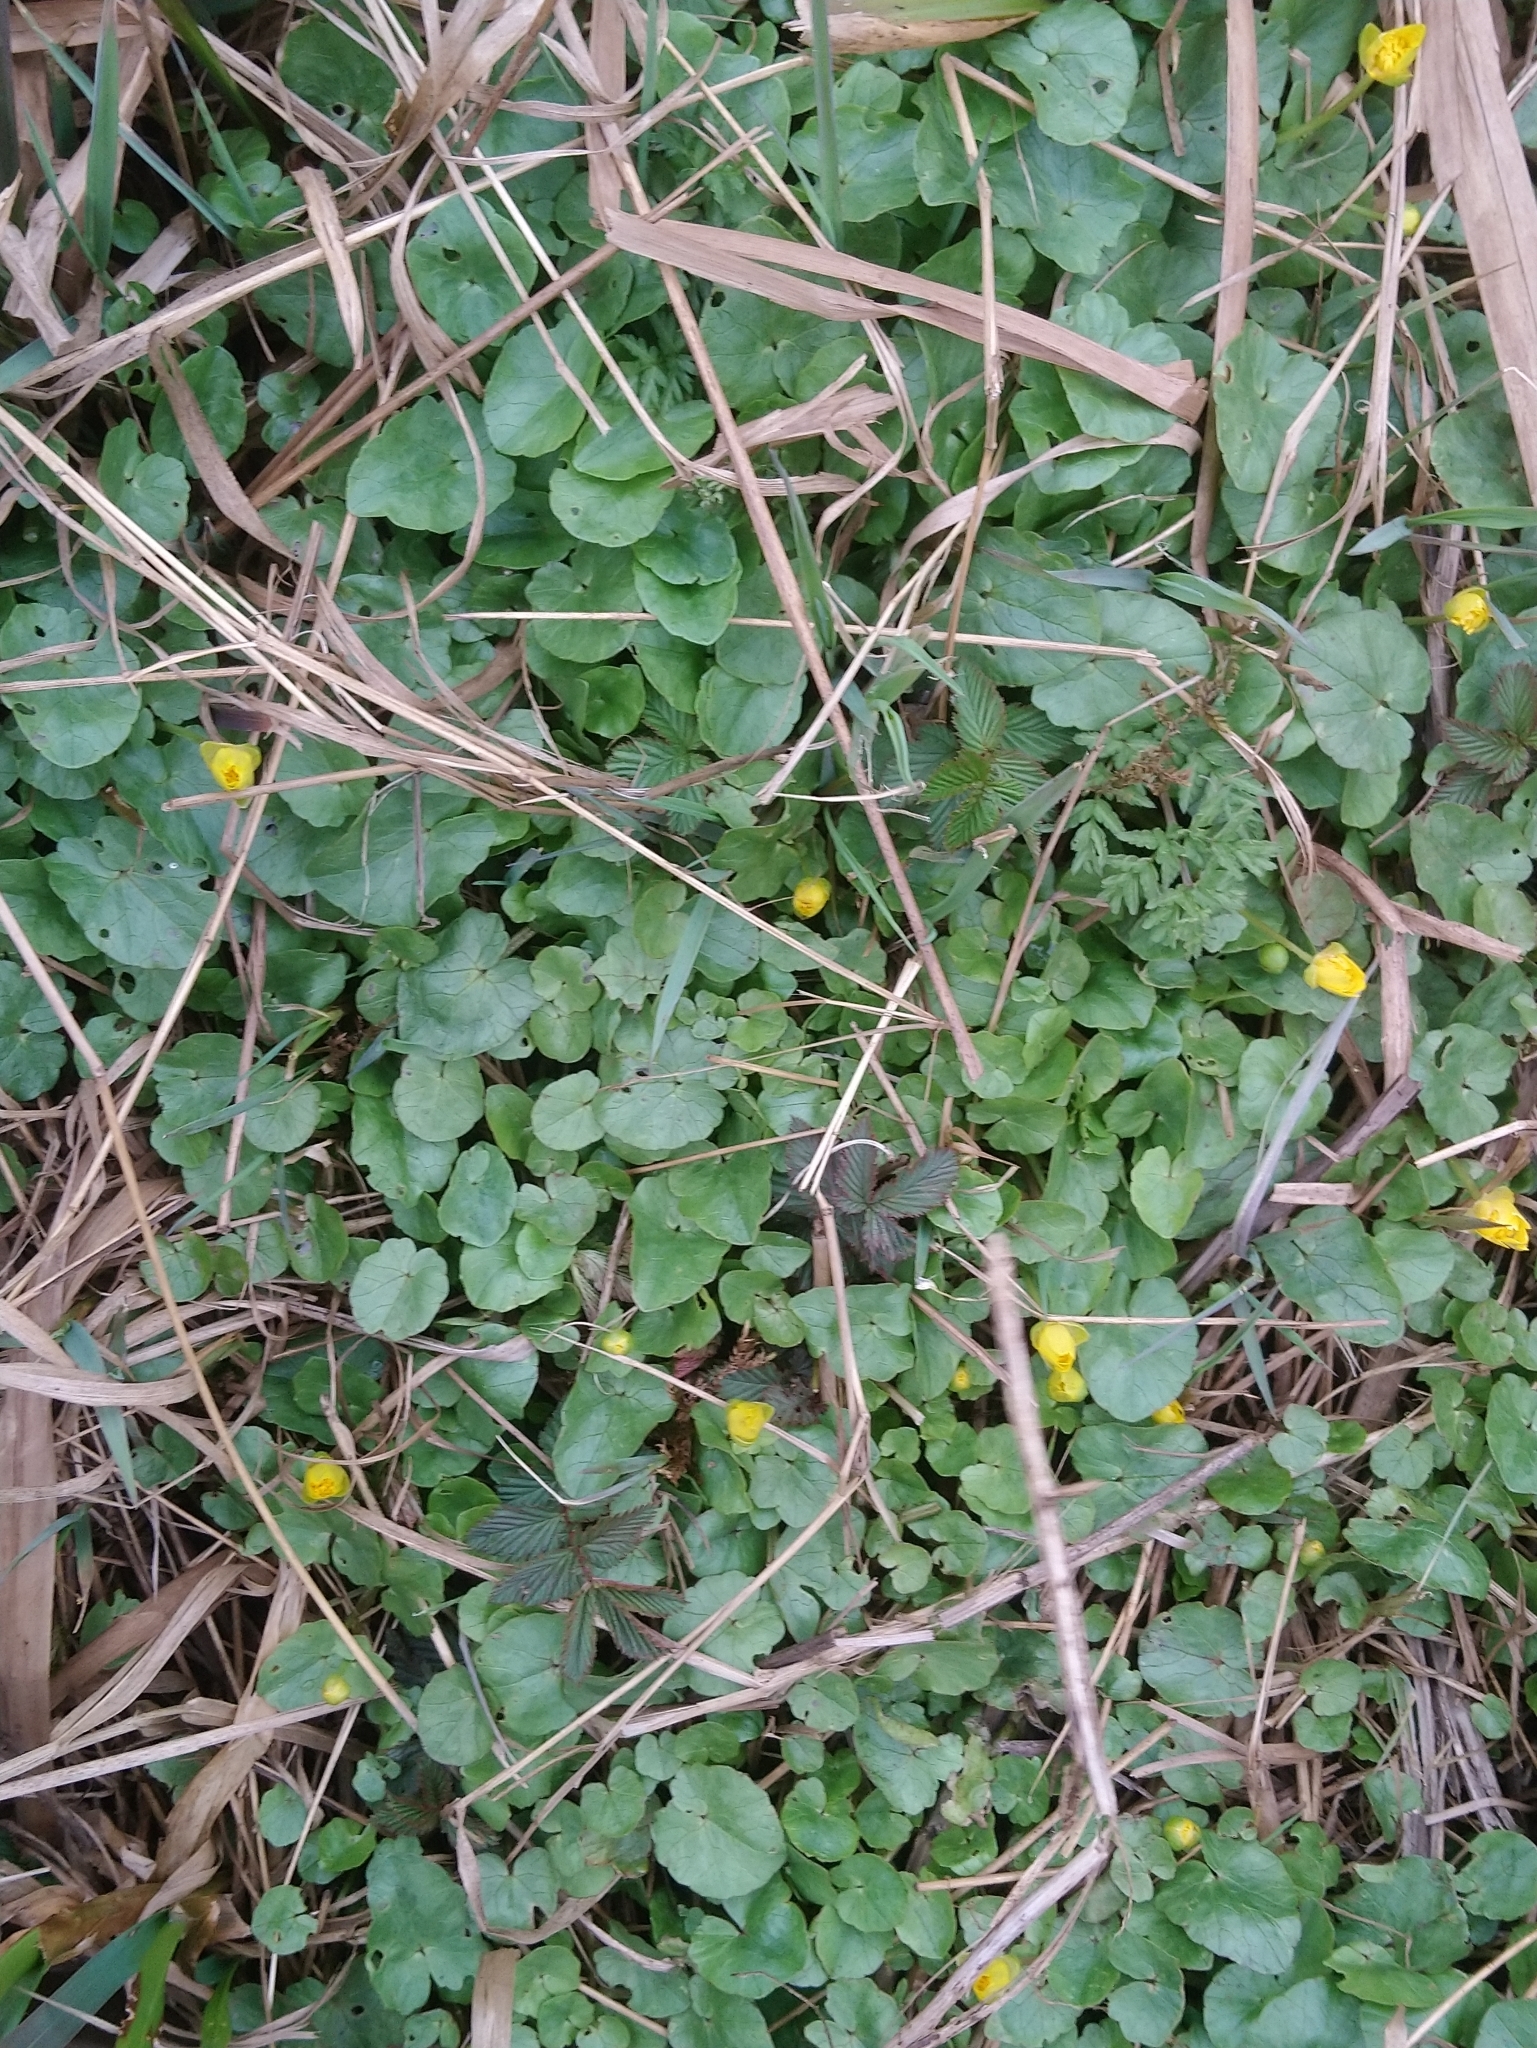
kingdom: Plantae
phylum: Tracheophyta
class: Magnoliopsida
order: Ranunculales
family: Ranunculaceae
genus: Ficaria
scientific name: Ficaria verna
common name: Lesser celandine
